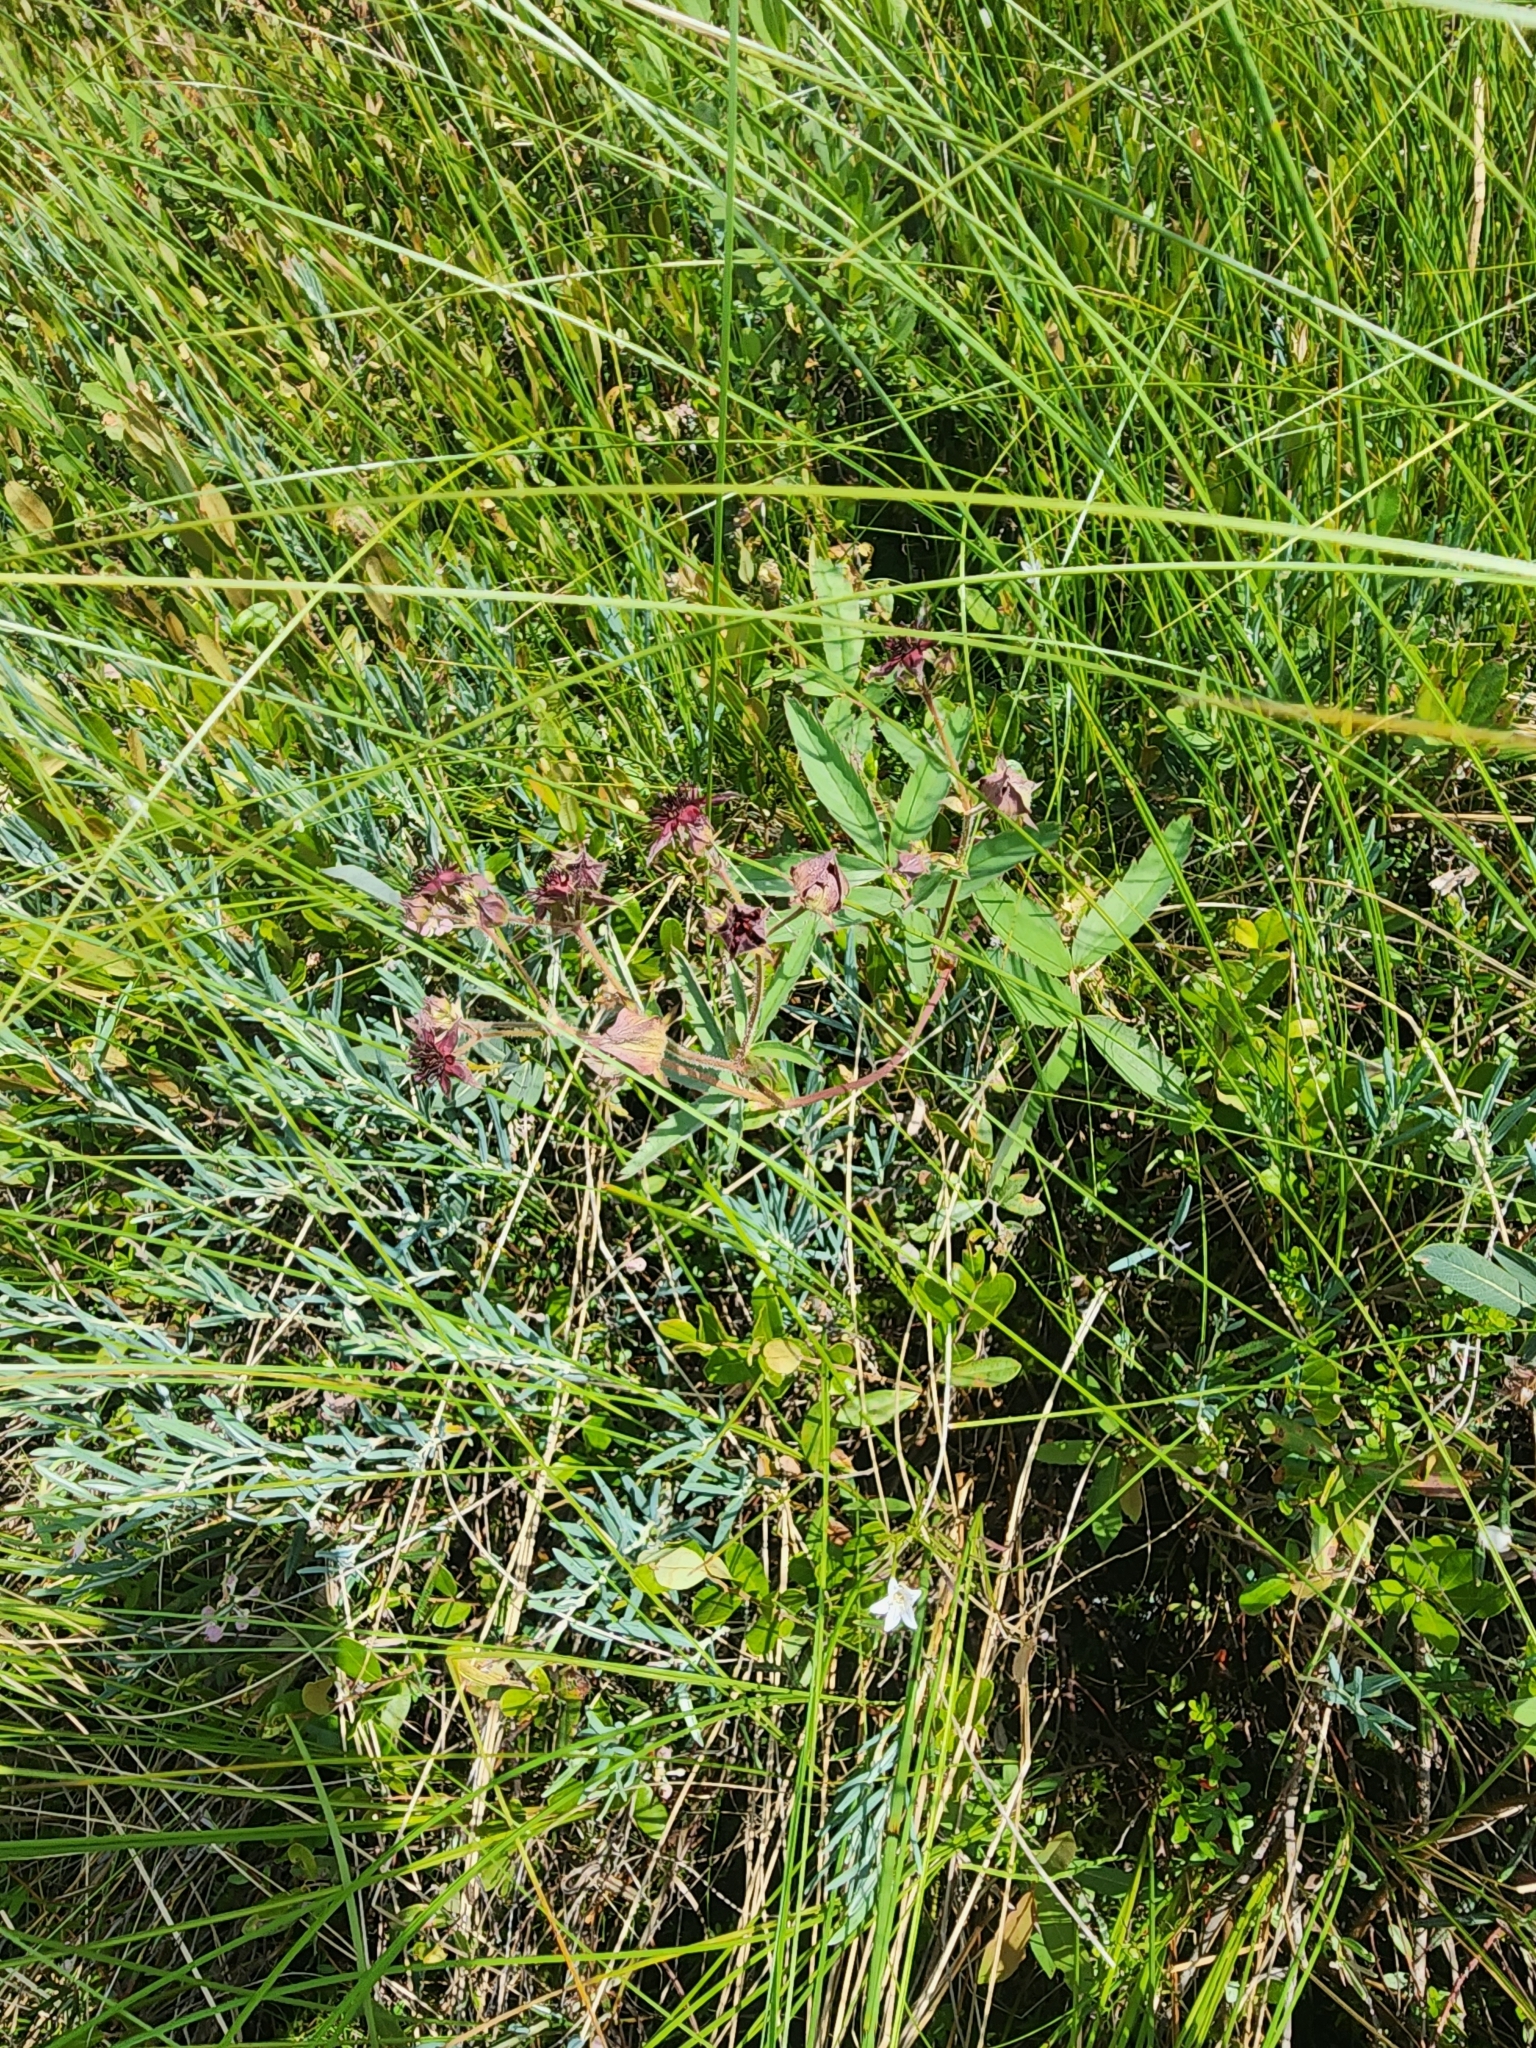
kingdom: Plantae
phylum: Tracheophyta
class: Magnoliopsida
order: Rosales
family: Rosaceae
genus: Comarum
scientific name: Comarum palustre
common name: Marsh cinquefoil
